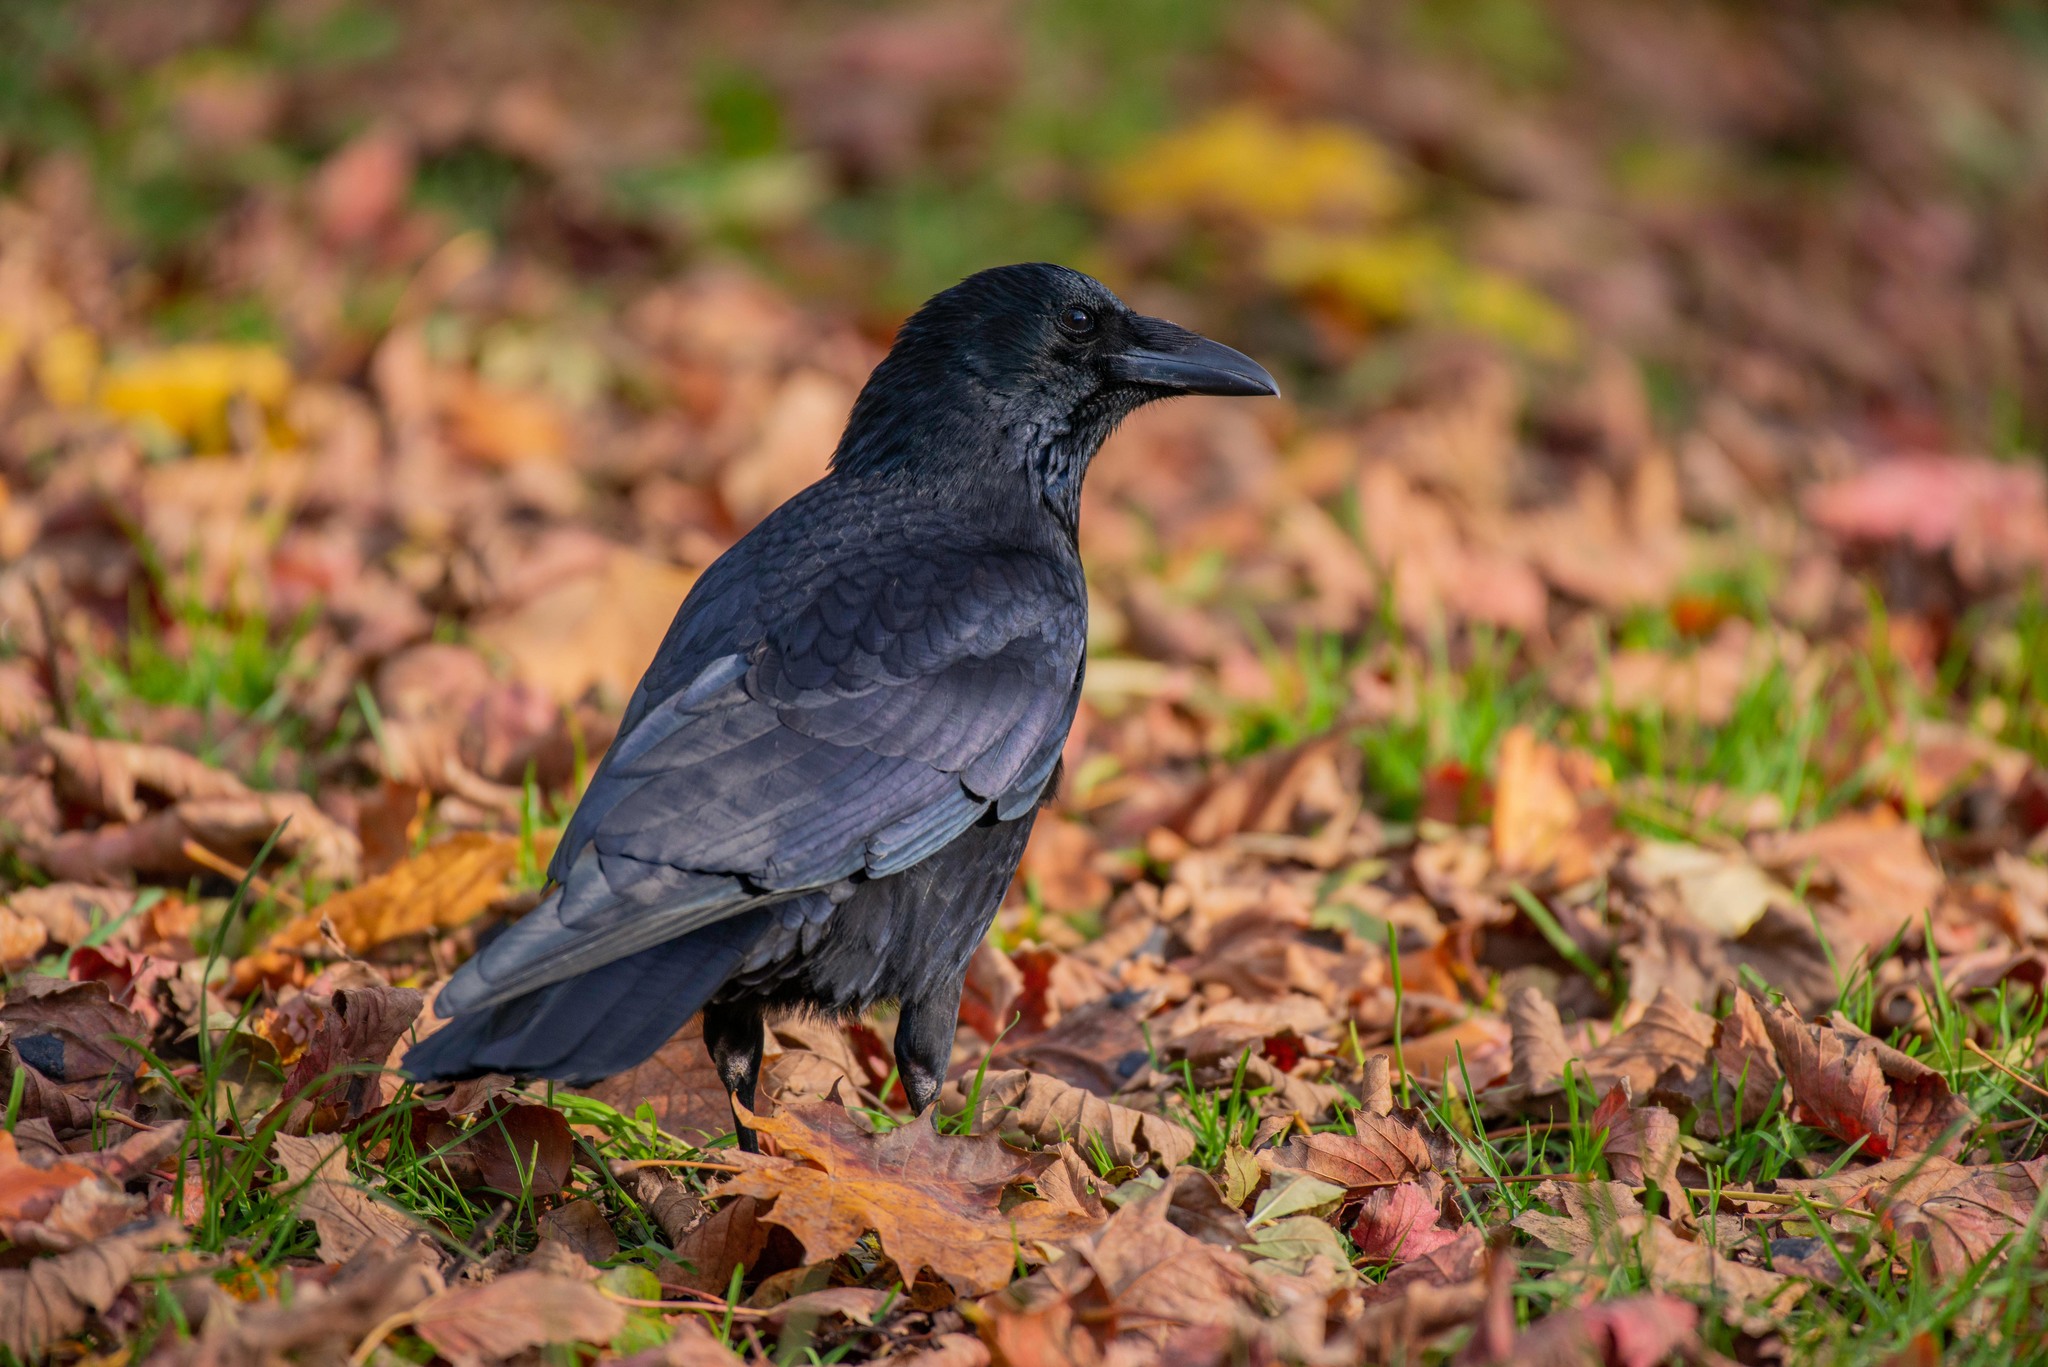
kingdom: Animalia
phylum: Chordata
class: Aves
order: Passeriformes
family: Corvidae
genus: Corvus
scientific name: Corvus corone
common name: Carrion crow
